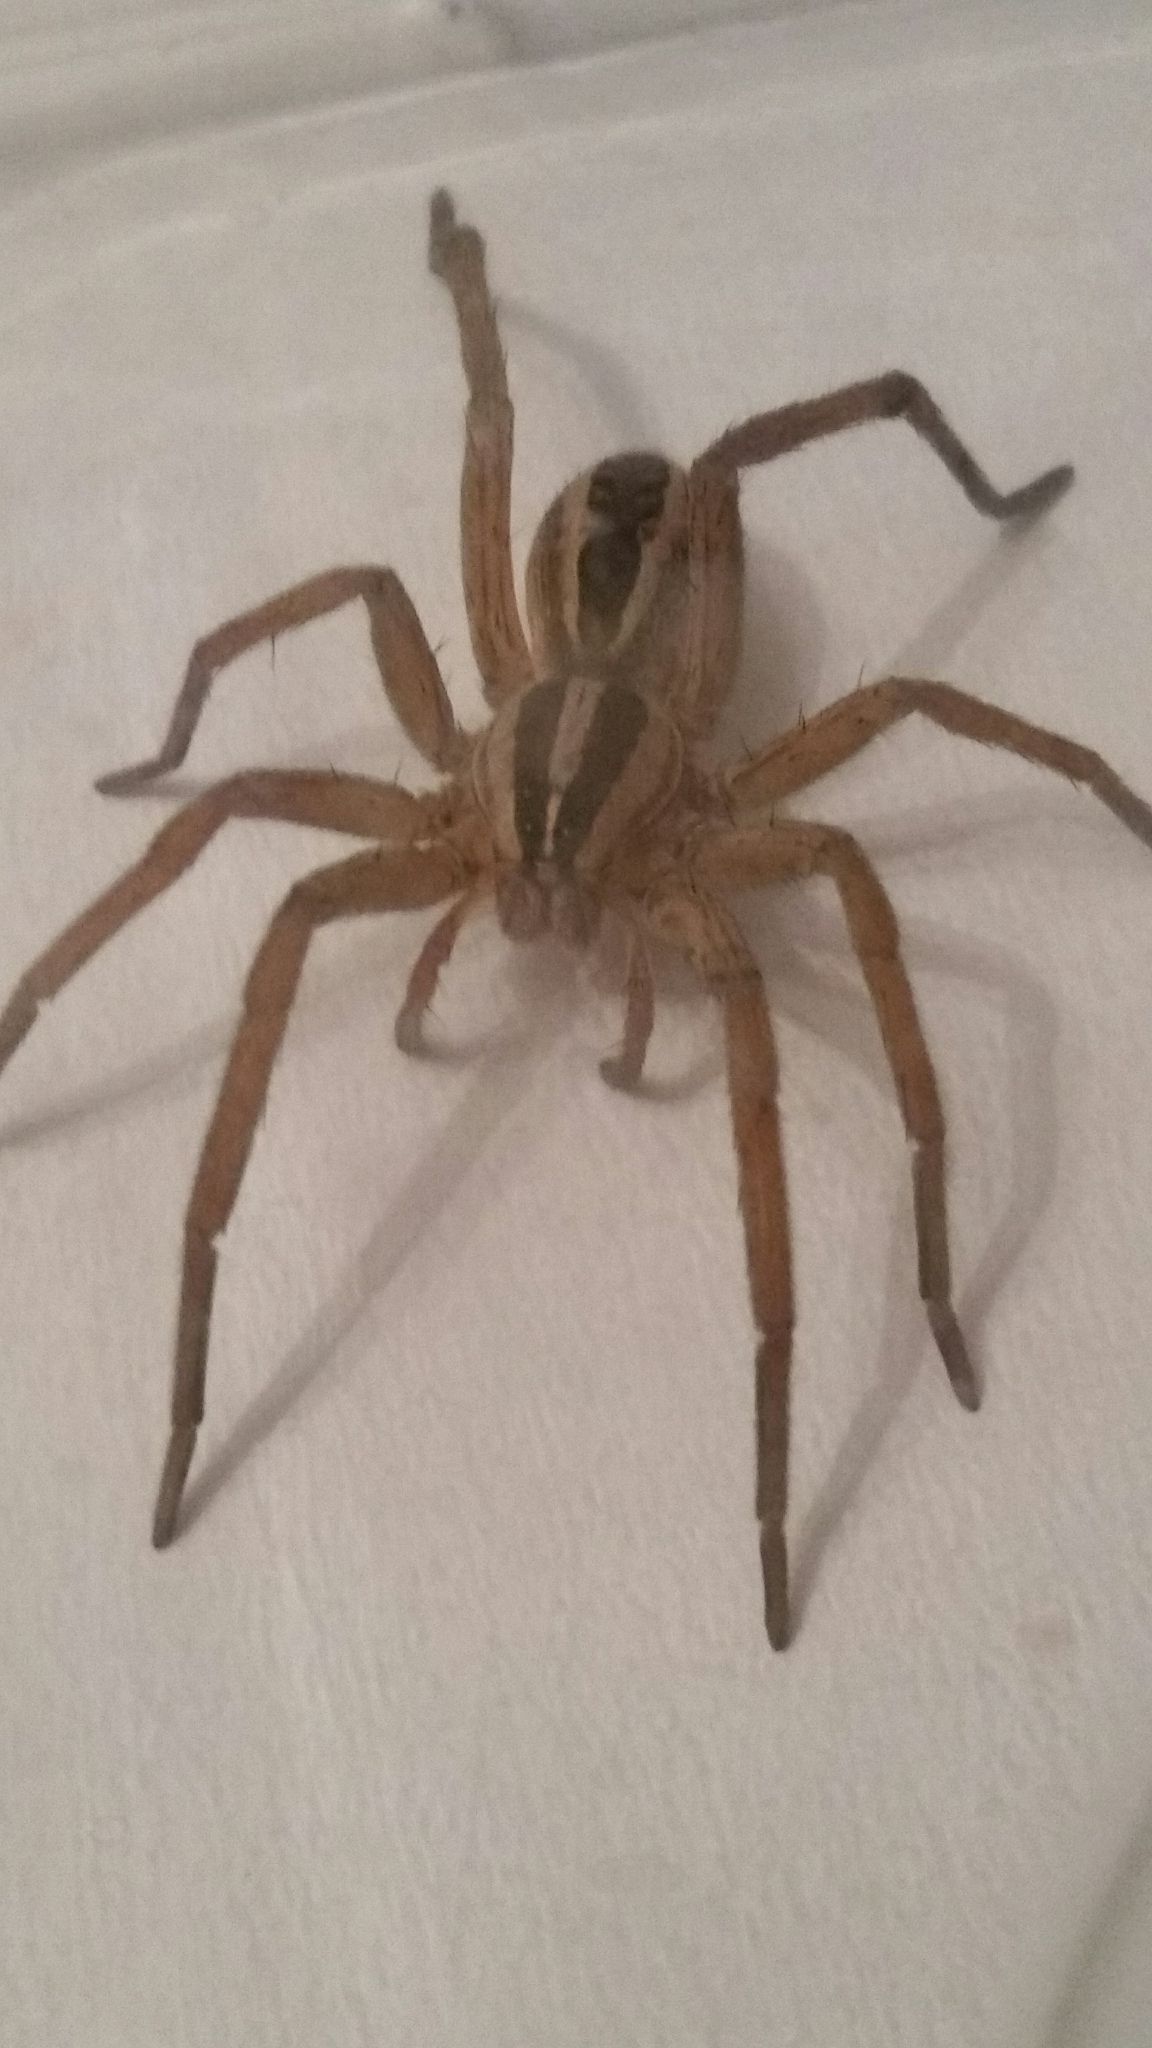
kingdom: Animalia
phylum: Arthropoda
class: Arachnida
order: Araneae
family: Lycosidae
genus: Rabidosa
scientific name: Rabidosa rabida
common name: Rabid wolf spider
